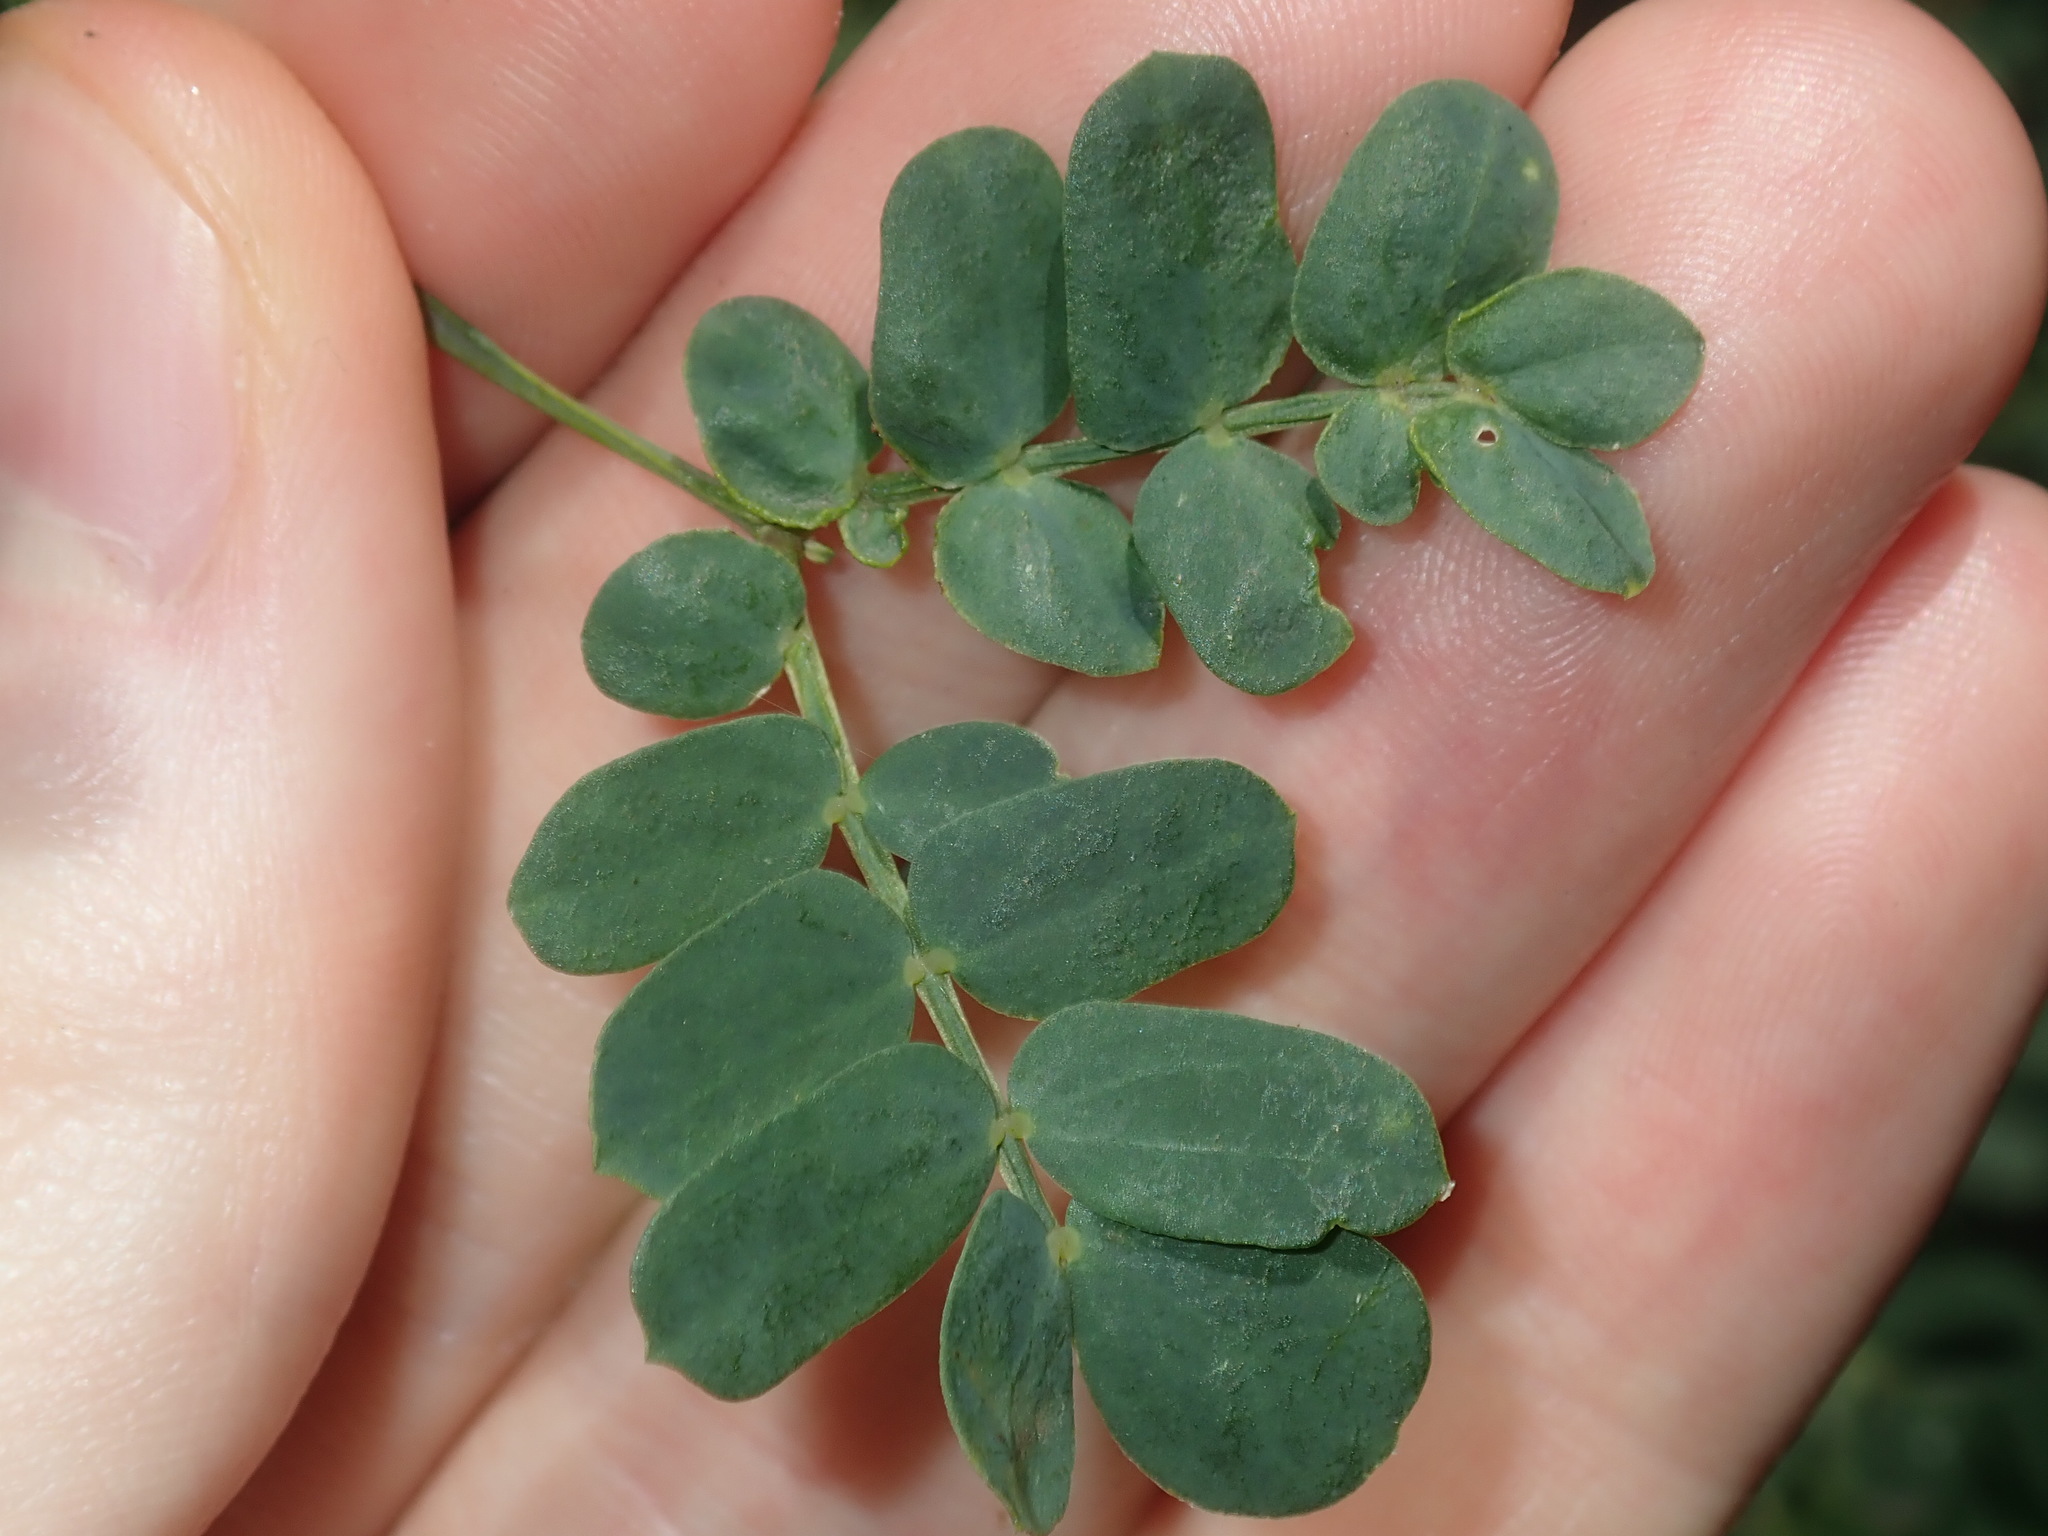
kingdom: Plantae
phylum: Tracheophyta
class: Magnoliopsida
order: Fabales
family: Fabaceae
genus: Acacia
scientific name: Acacia suaveolens
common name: Sweet acacia
